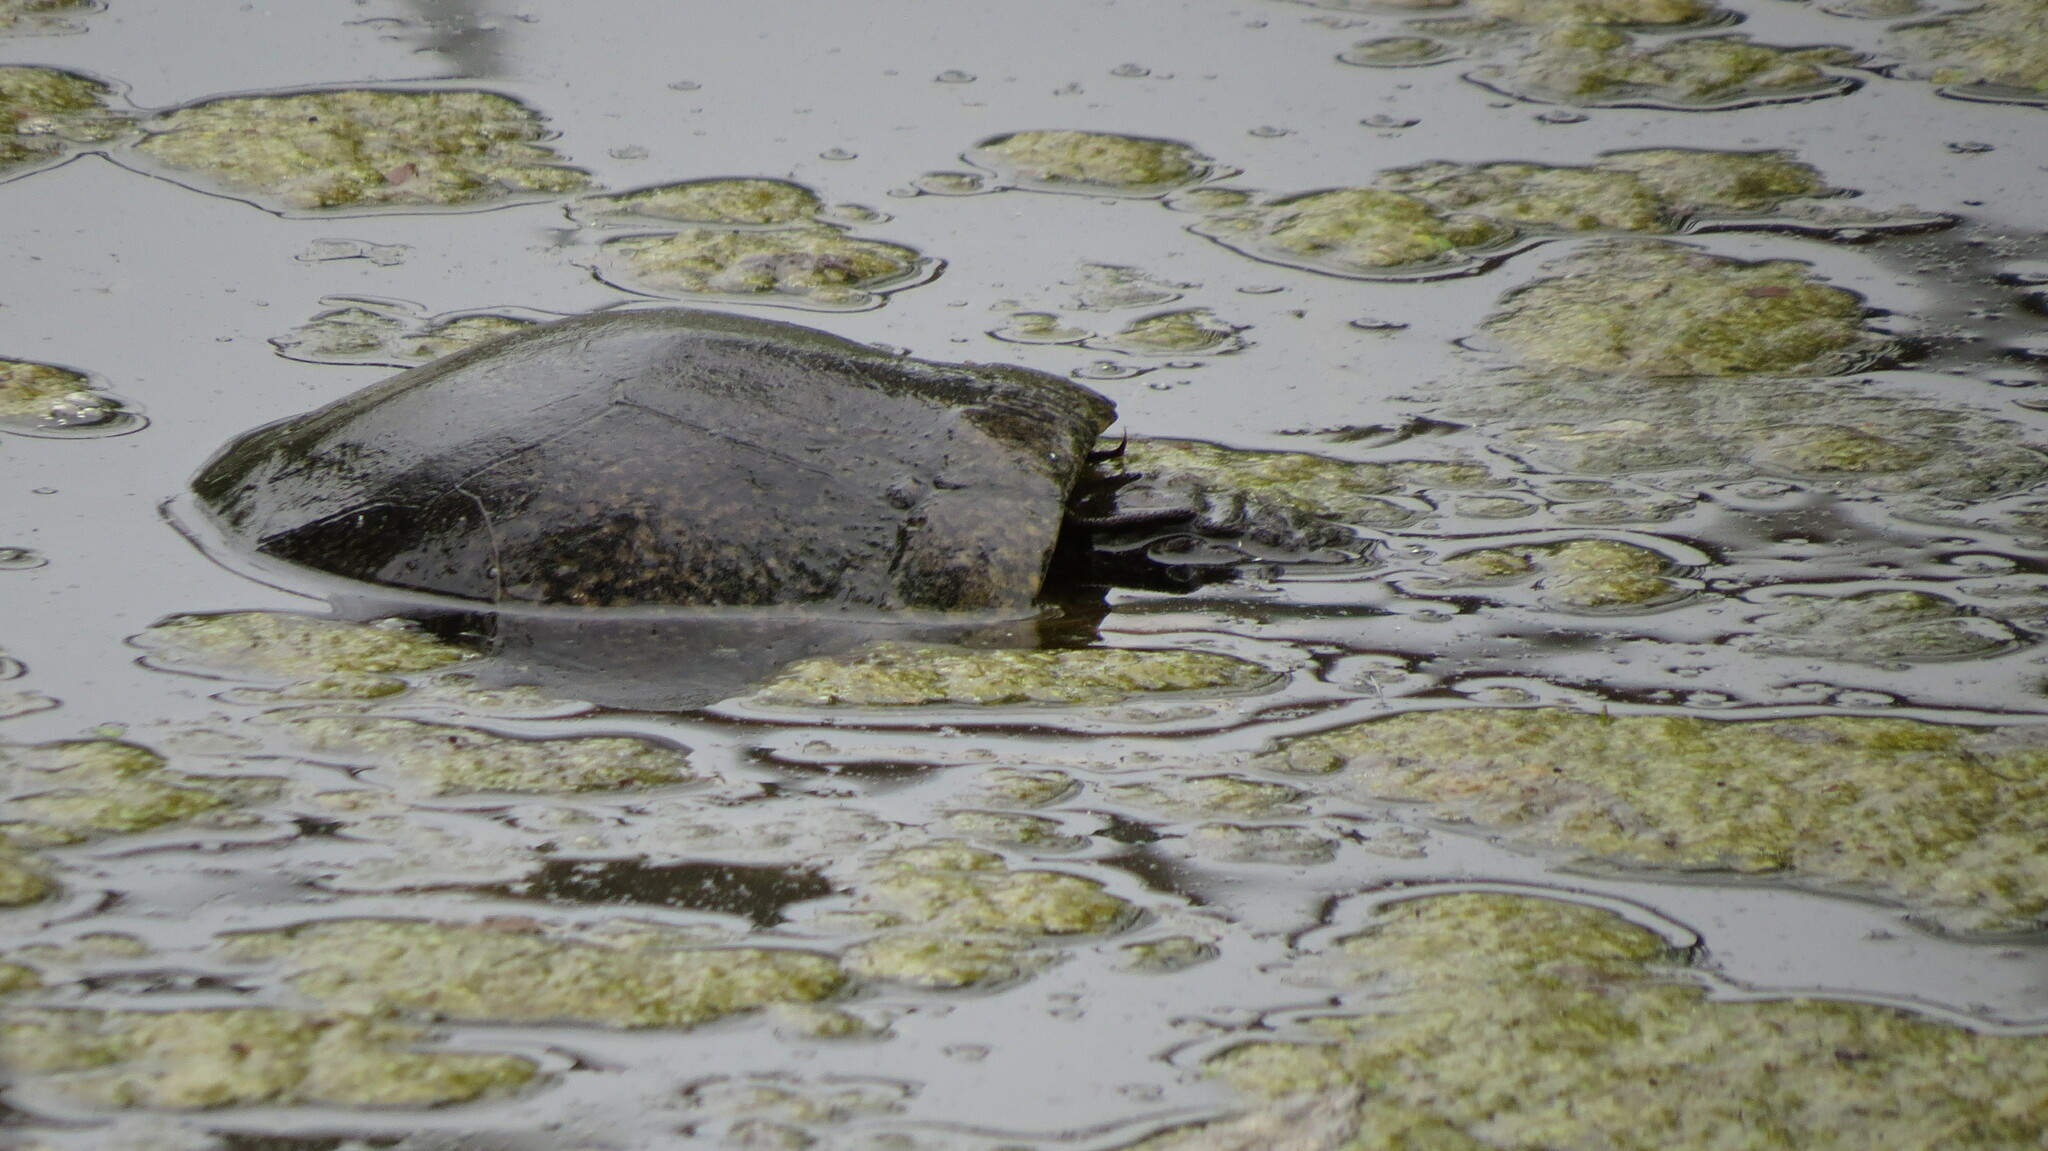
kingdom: Animalia
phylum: Chordata
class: Testudines
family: Emydidae
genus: Emys
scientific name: Emys blandingii
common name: Blanding's turtle
